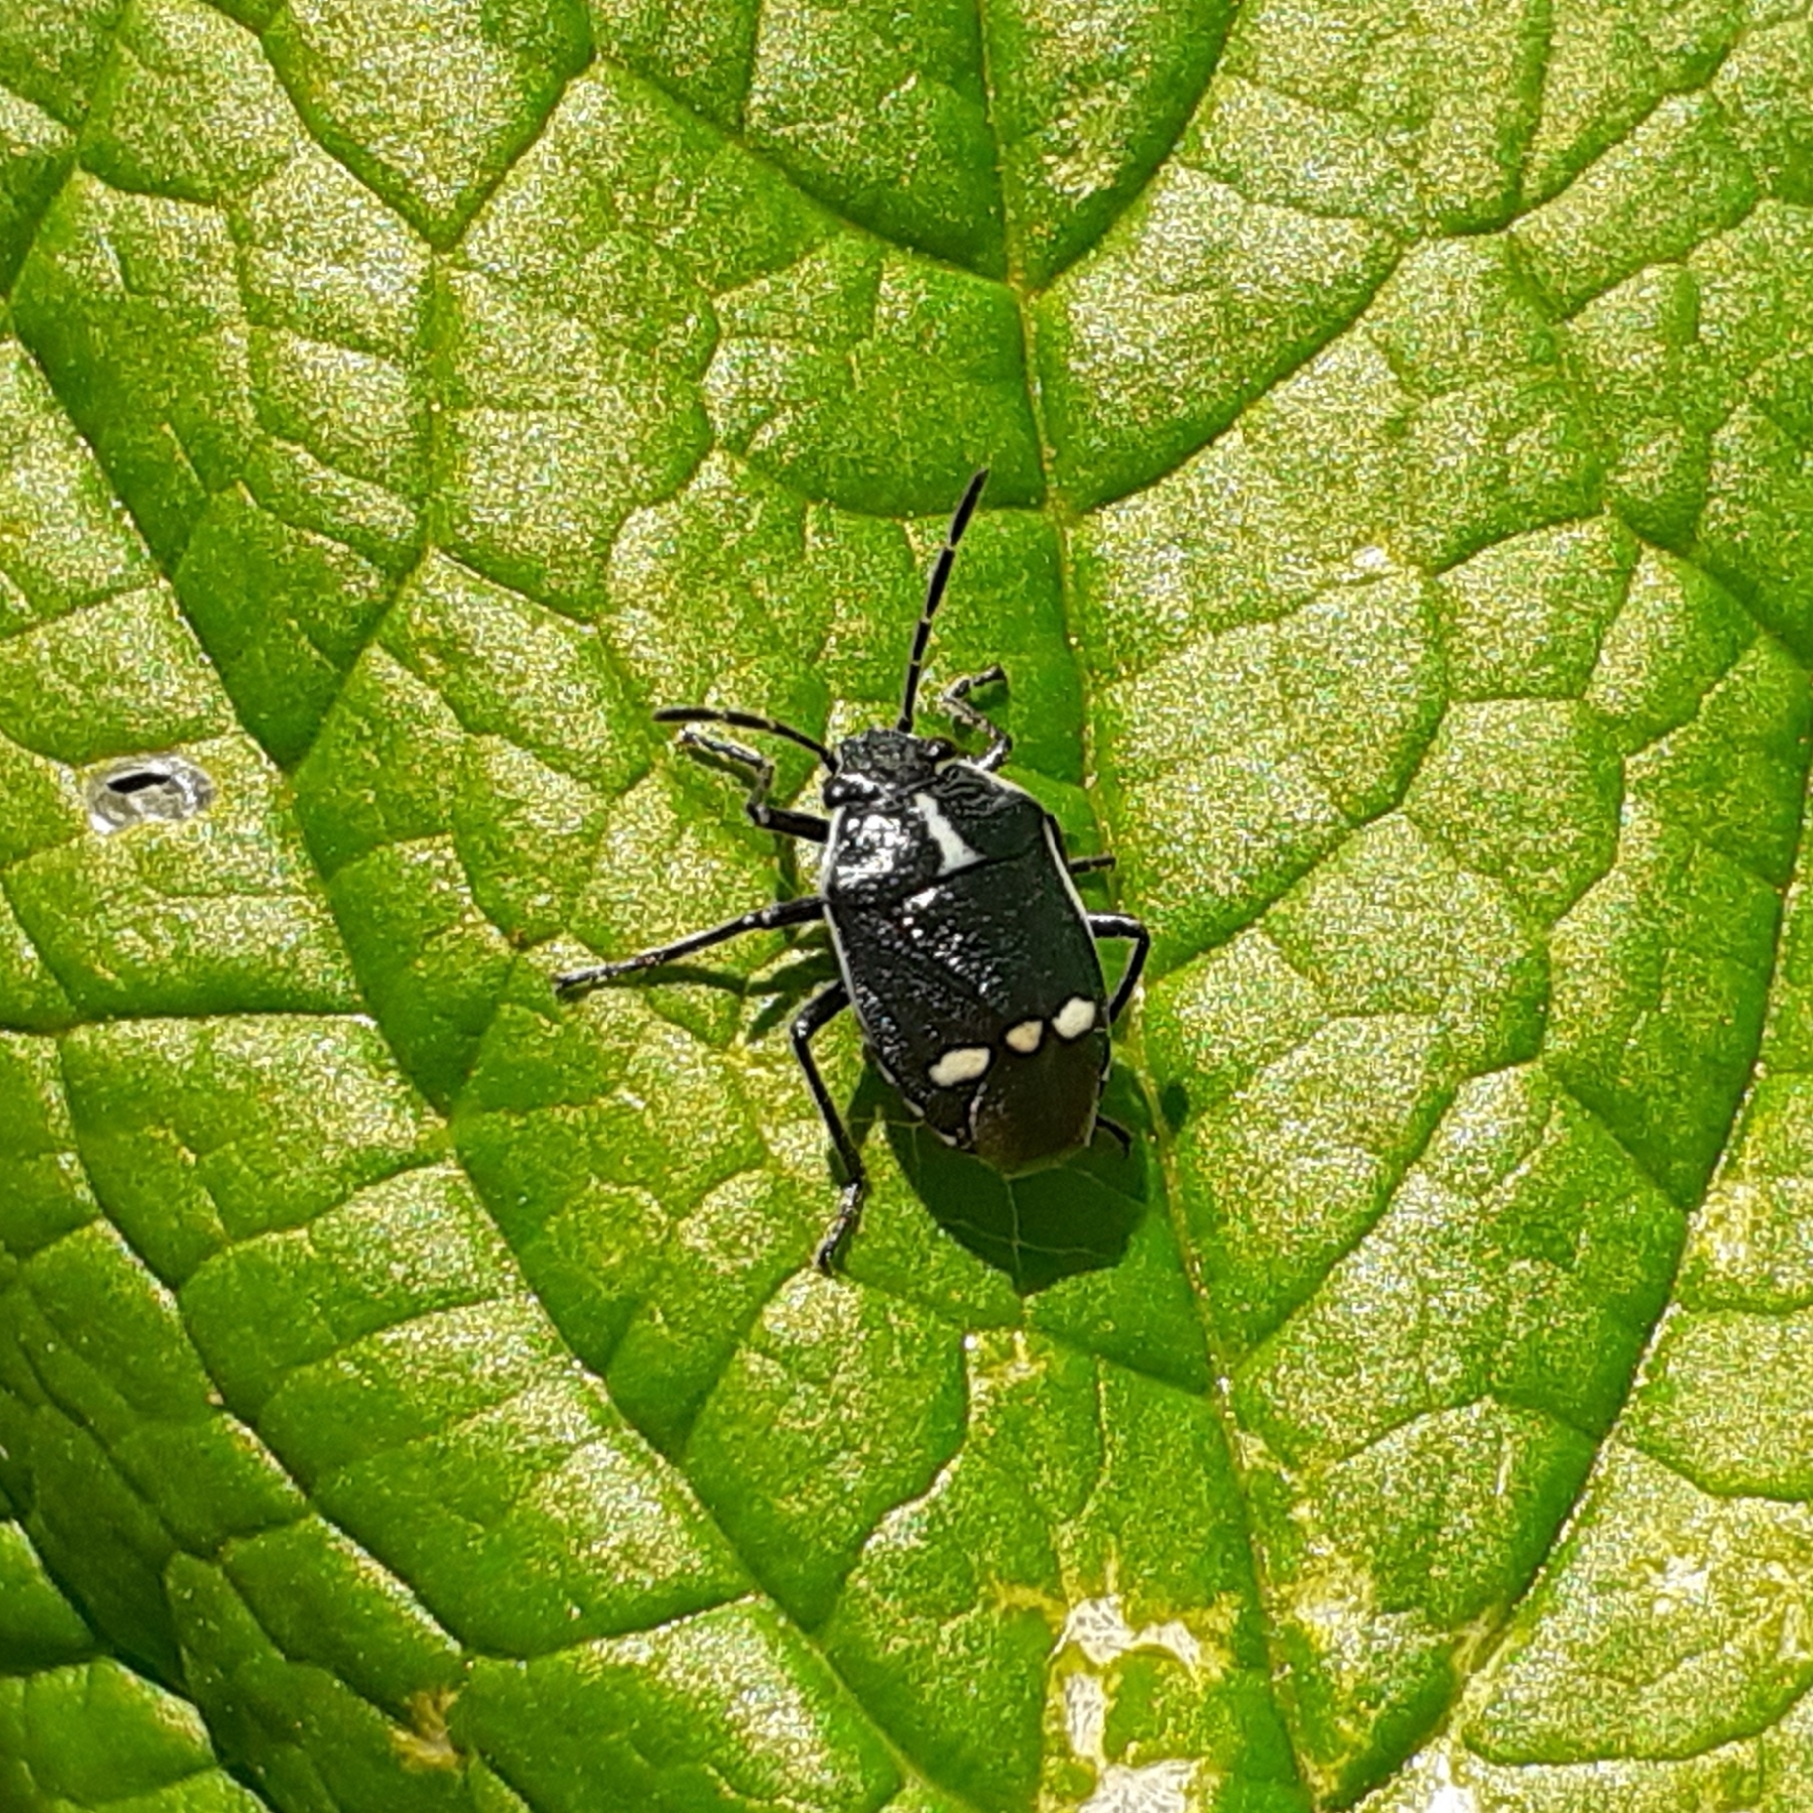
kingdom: Animalia
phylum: Arthropoda
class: Insecta
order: Hemiptera
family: Pentatomidae
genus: Eurydema
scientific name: Eurydema oleracea
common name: Cabbage bug
